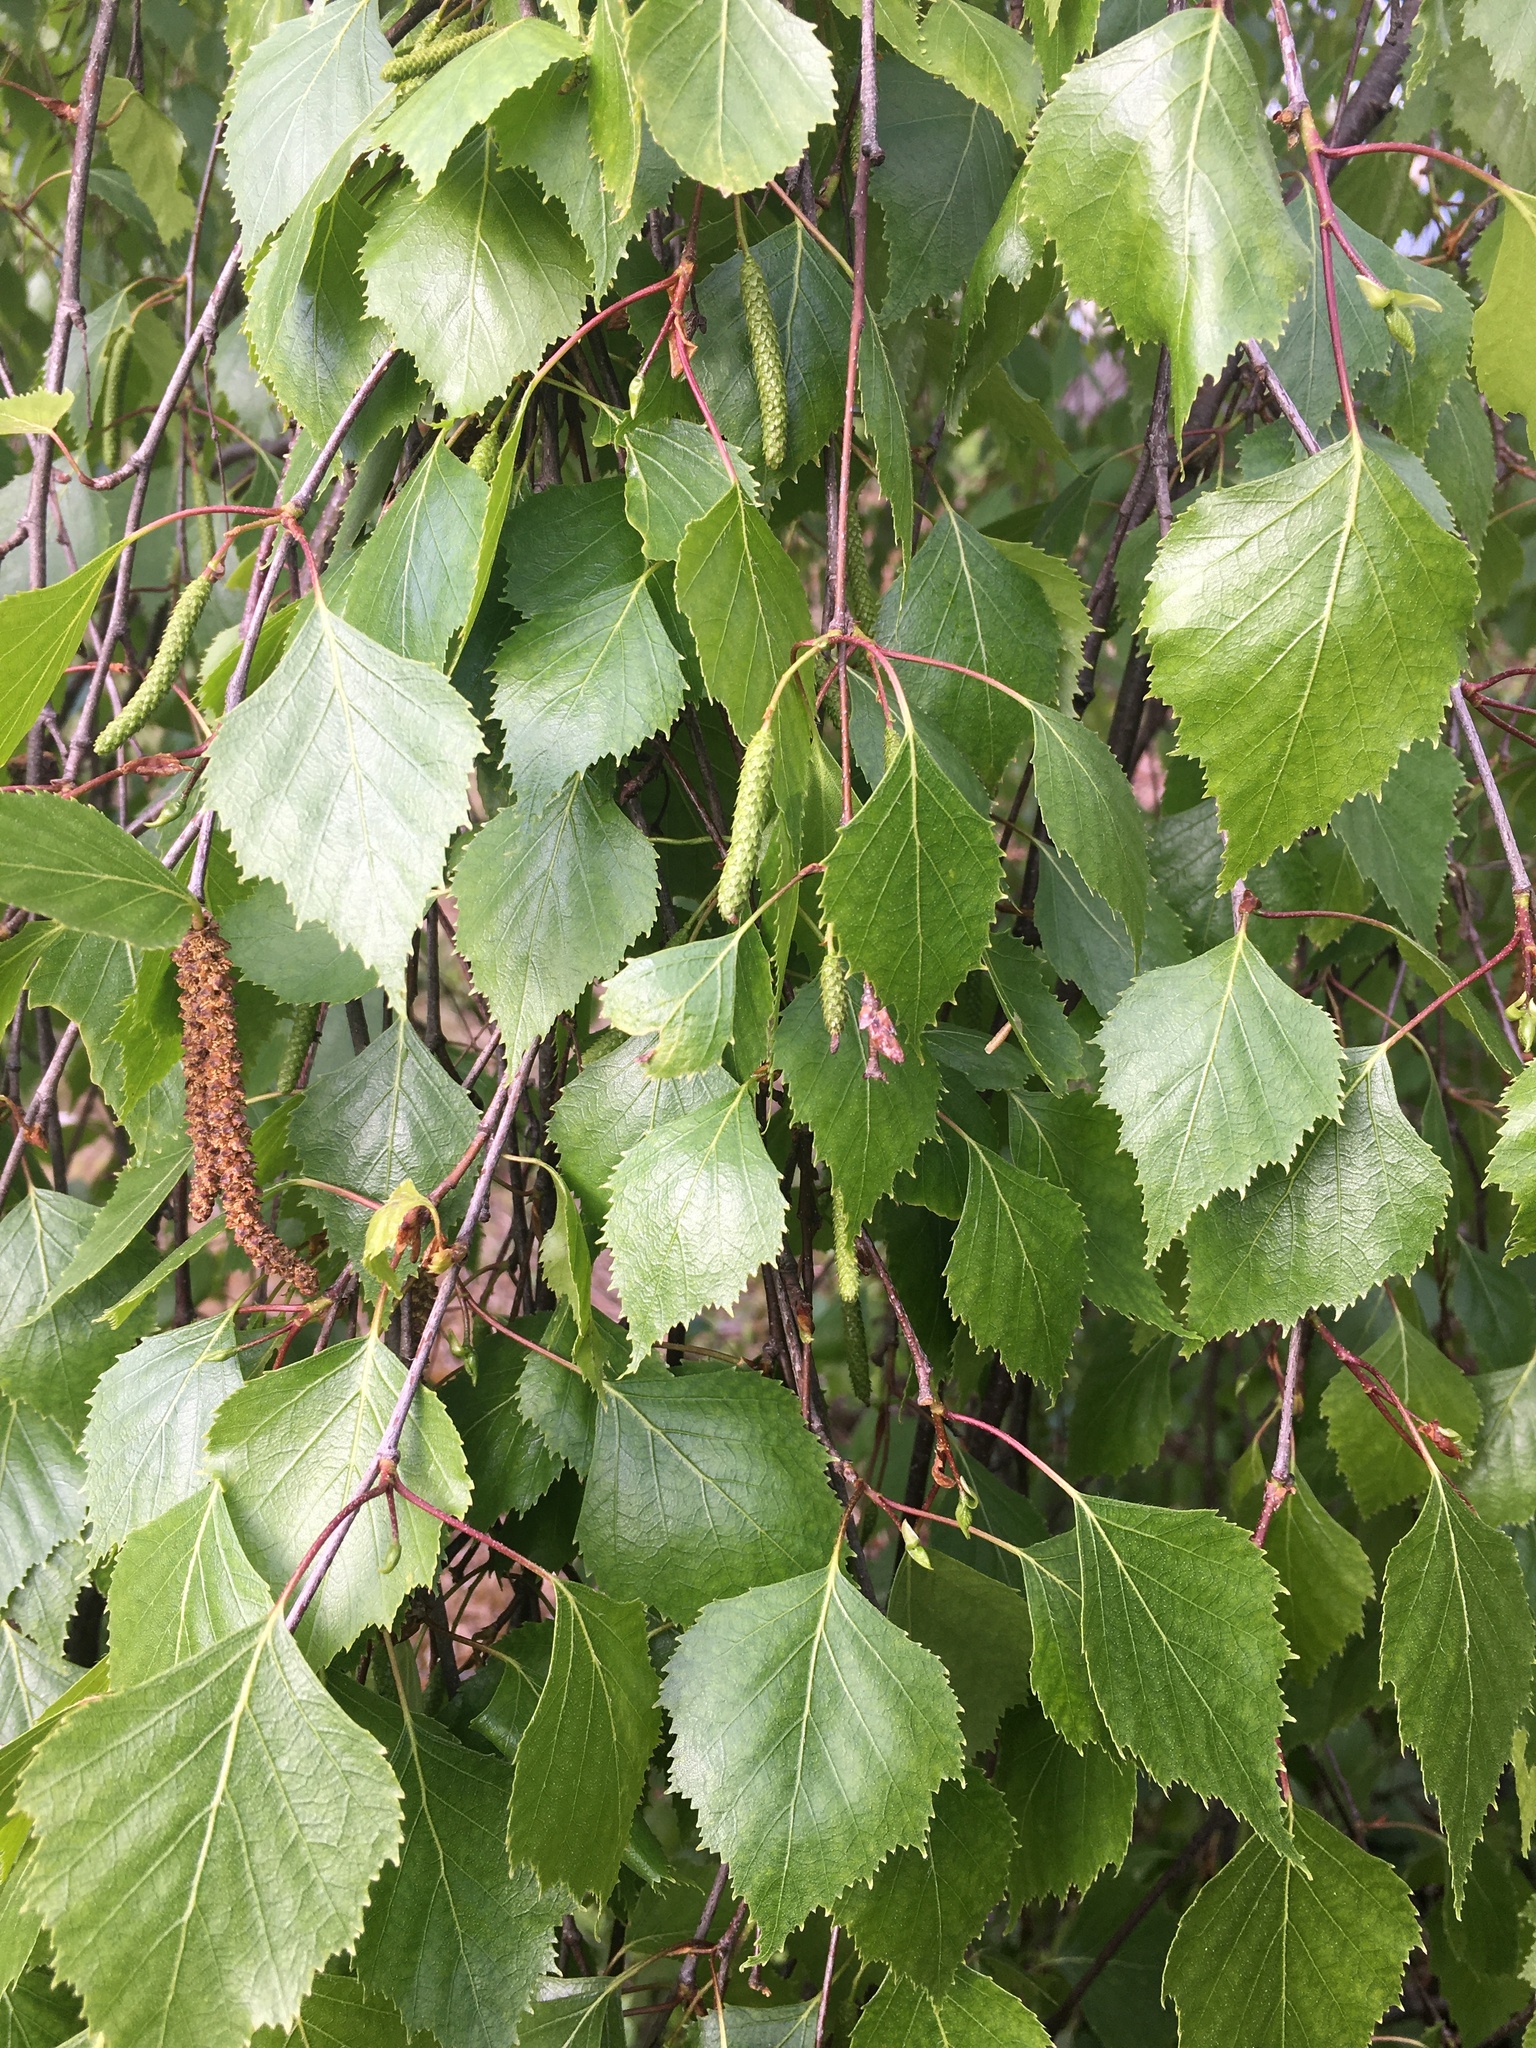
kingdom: Plantae
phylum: Tracheophyta
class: Magnoliopsida
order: Fagales
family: Betulaceae
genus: Betula
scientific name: Betula pendula
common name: Silver birch
